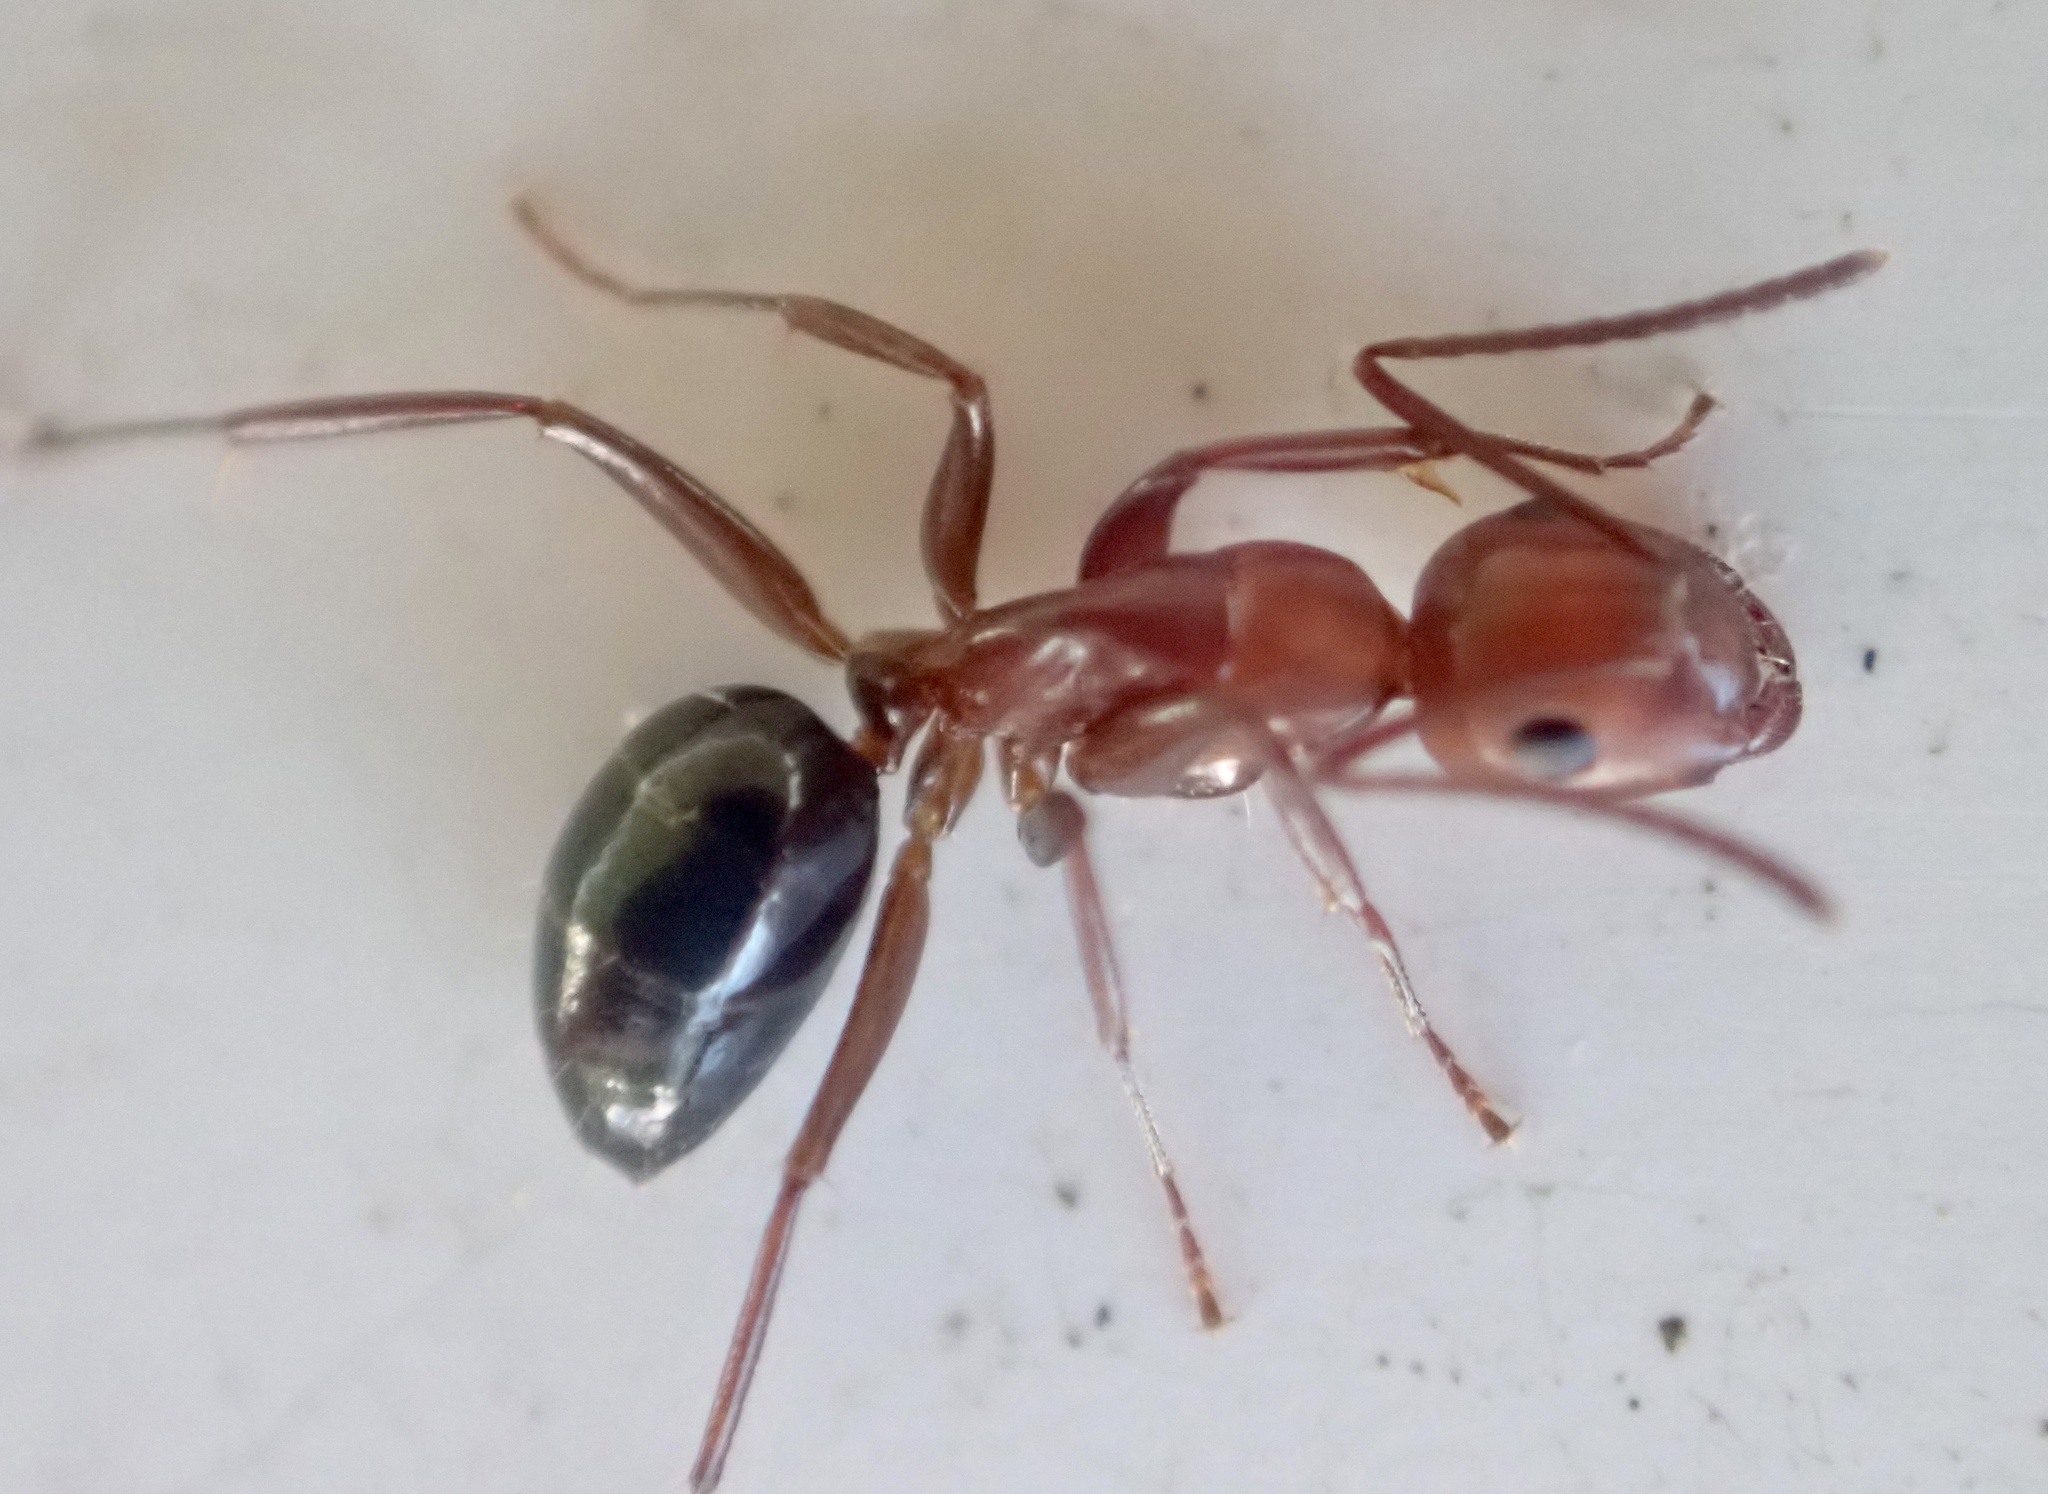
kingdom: Animalia
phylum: Arthropoda
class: Insecta
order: Hymenoptera
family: Formicidae
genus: Camponotus
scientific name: Camponotus decipiens
